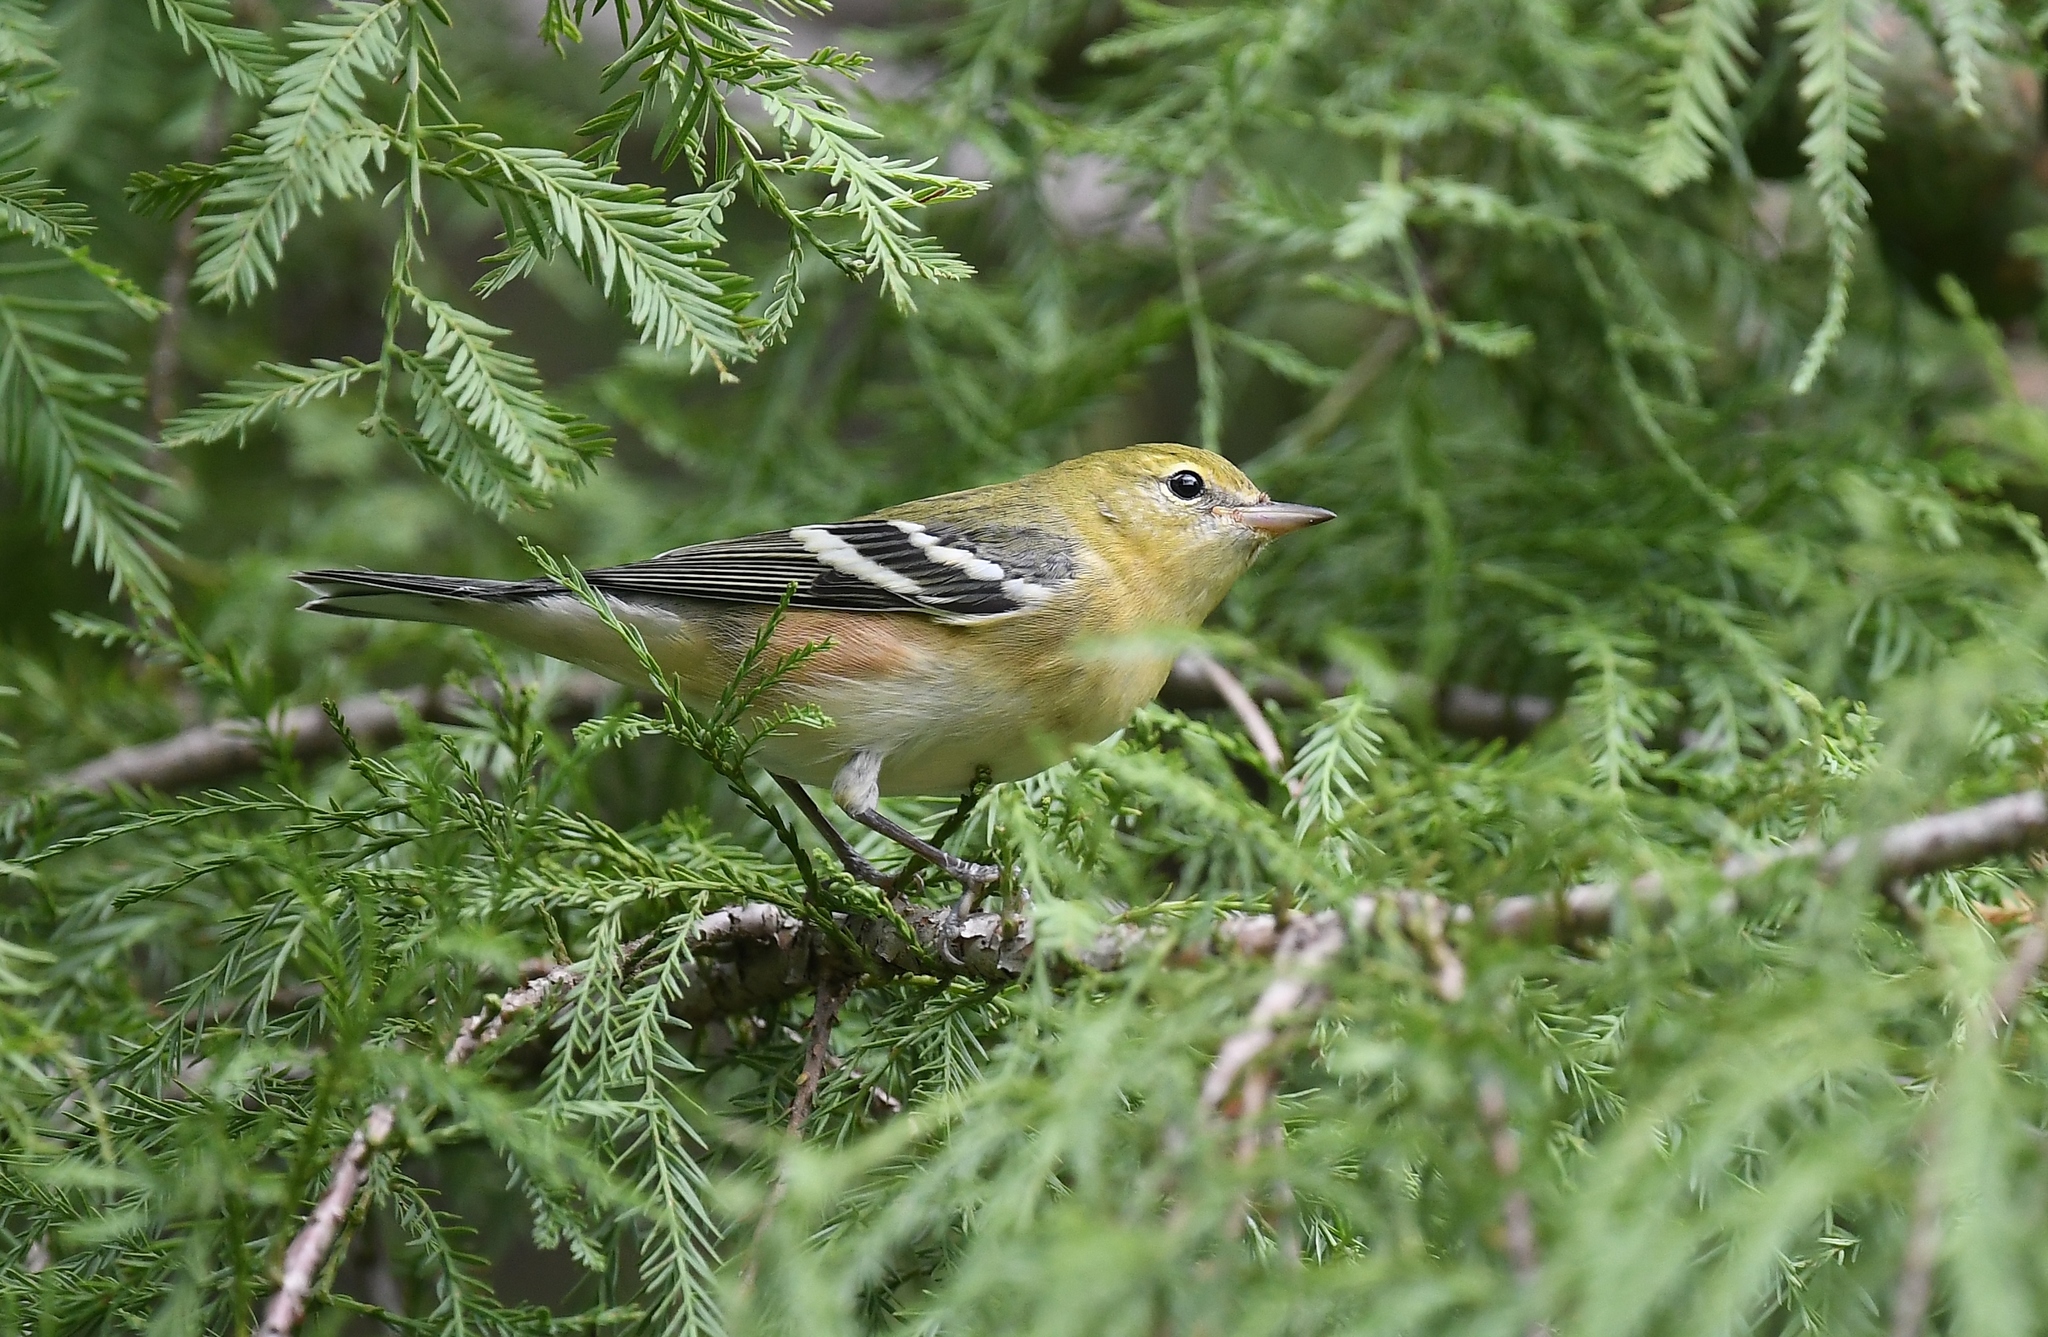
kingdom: Animalia
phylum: Chordata
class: Aves
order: Passeriformes
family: Parulidae
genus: Setophaga
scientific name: Setophaga castanea
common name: Bay-breasted warbler
